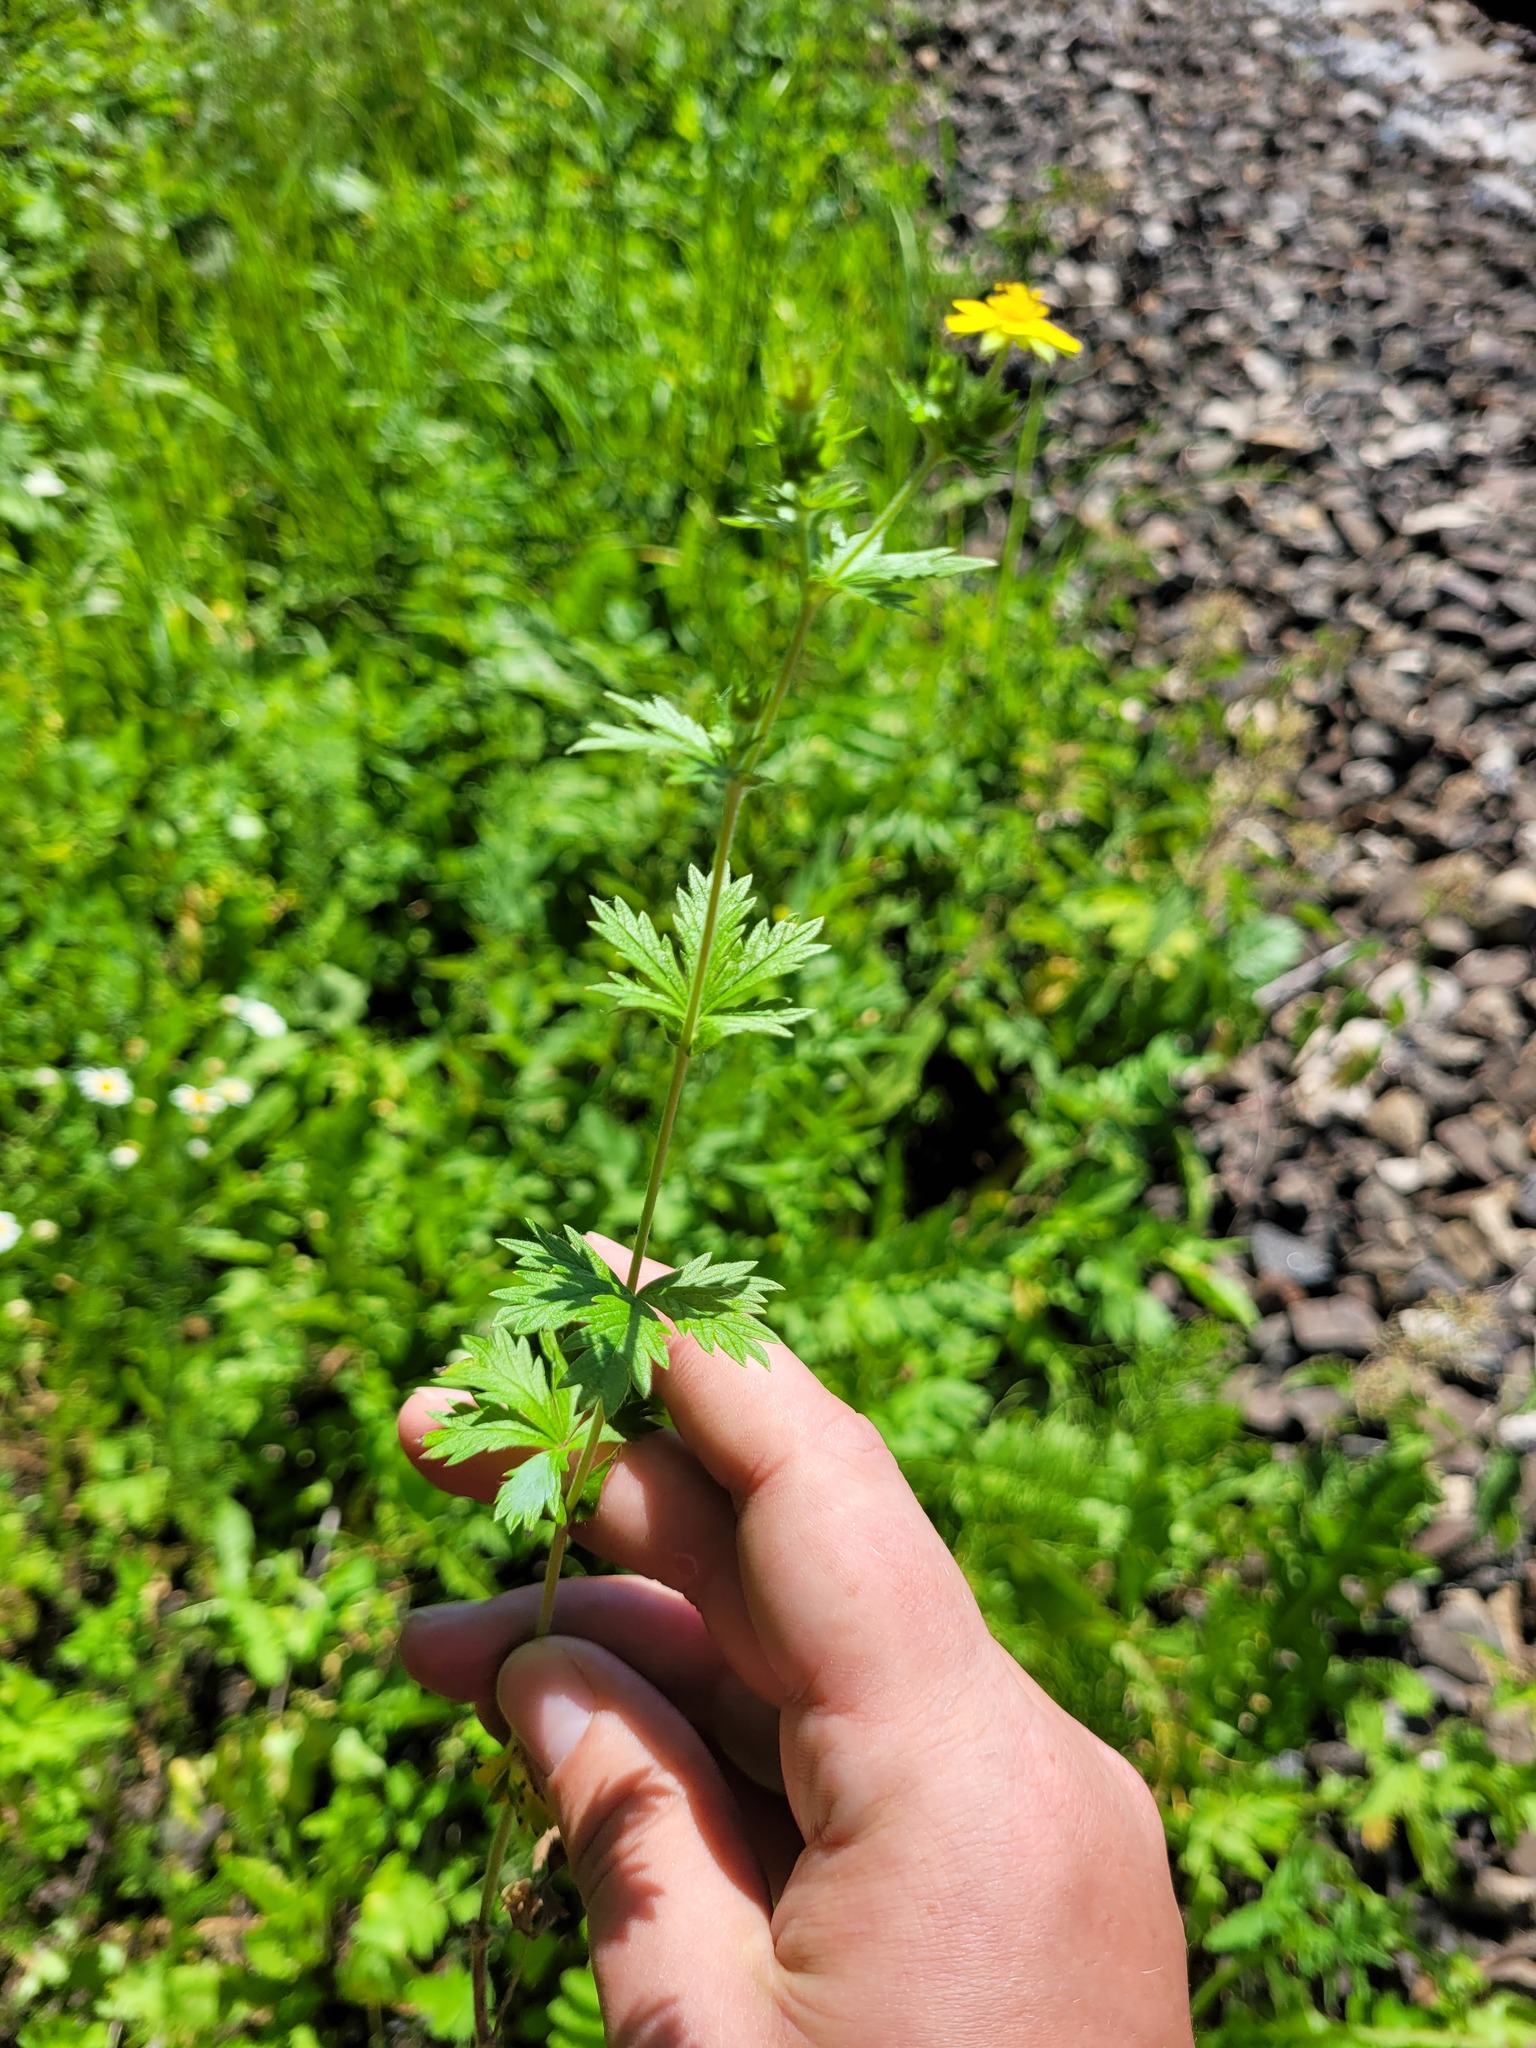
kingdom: Plantae
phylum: Tracheophyta
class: Magnoliopsida
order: Rosales
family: Rosaceae
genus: Potentilla
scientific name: Potentilla intermedia
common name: Downy cinquefoil
